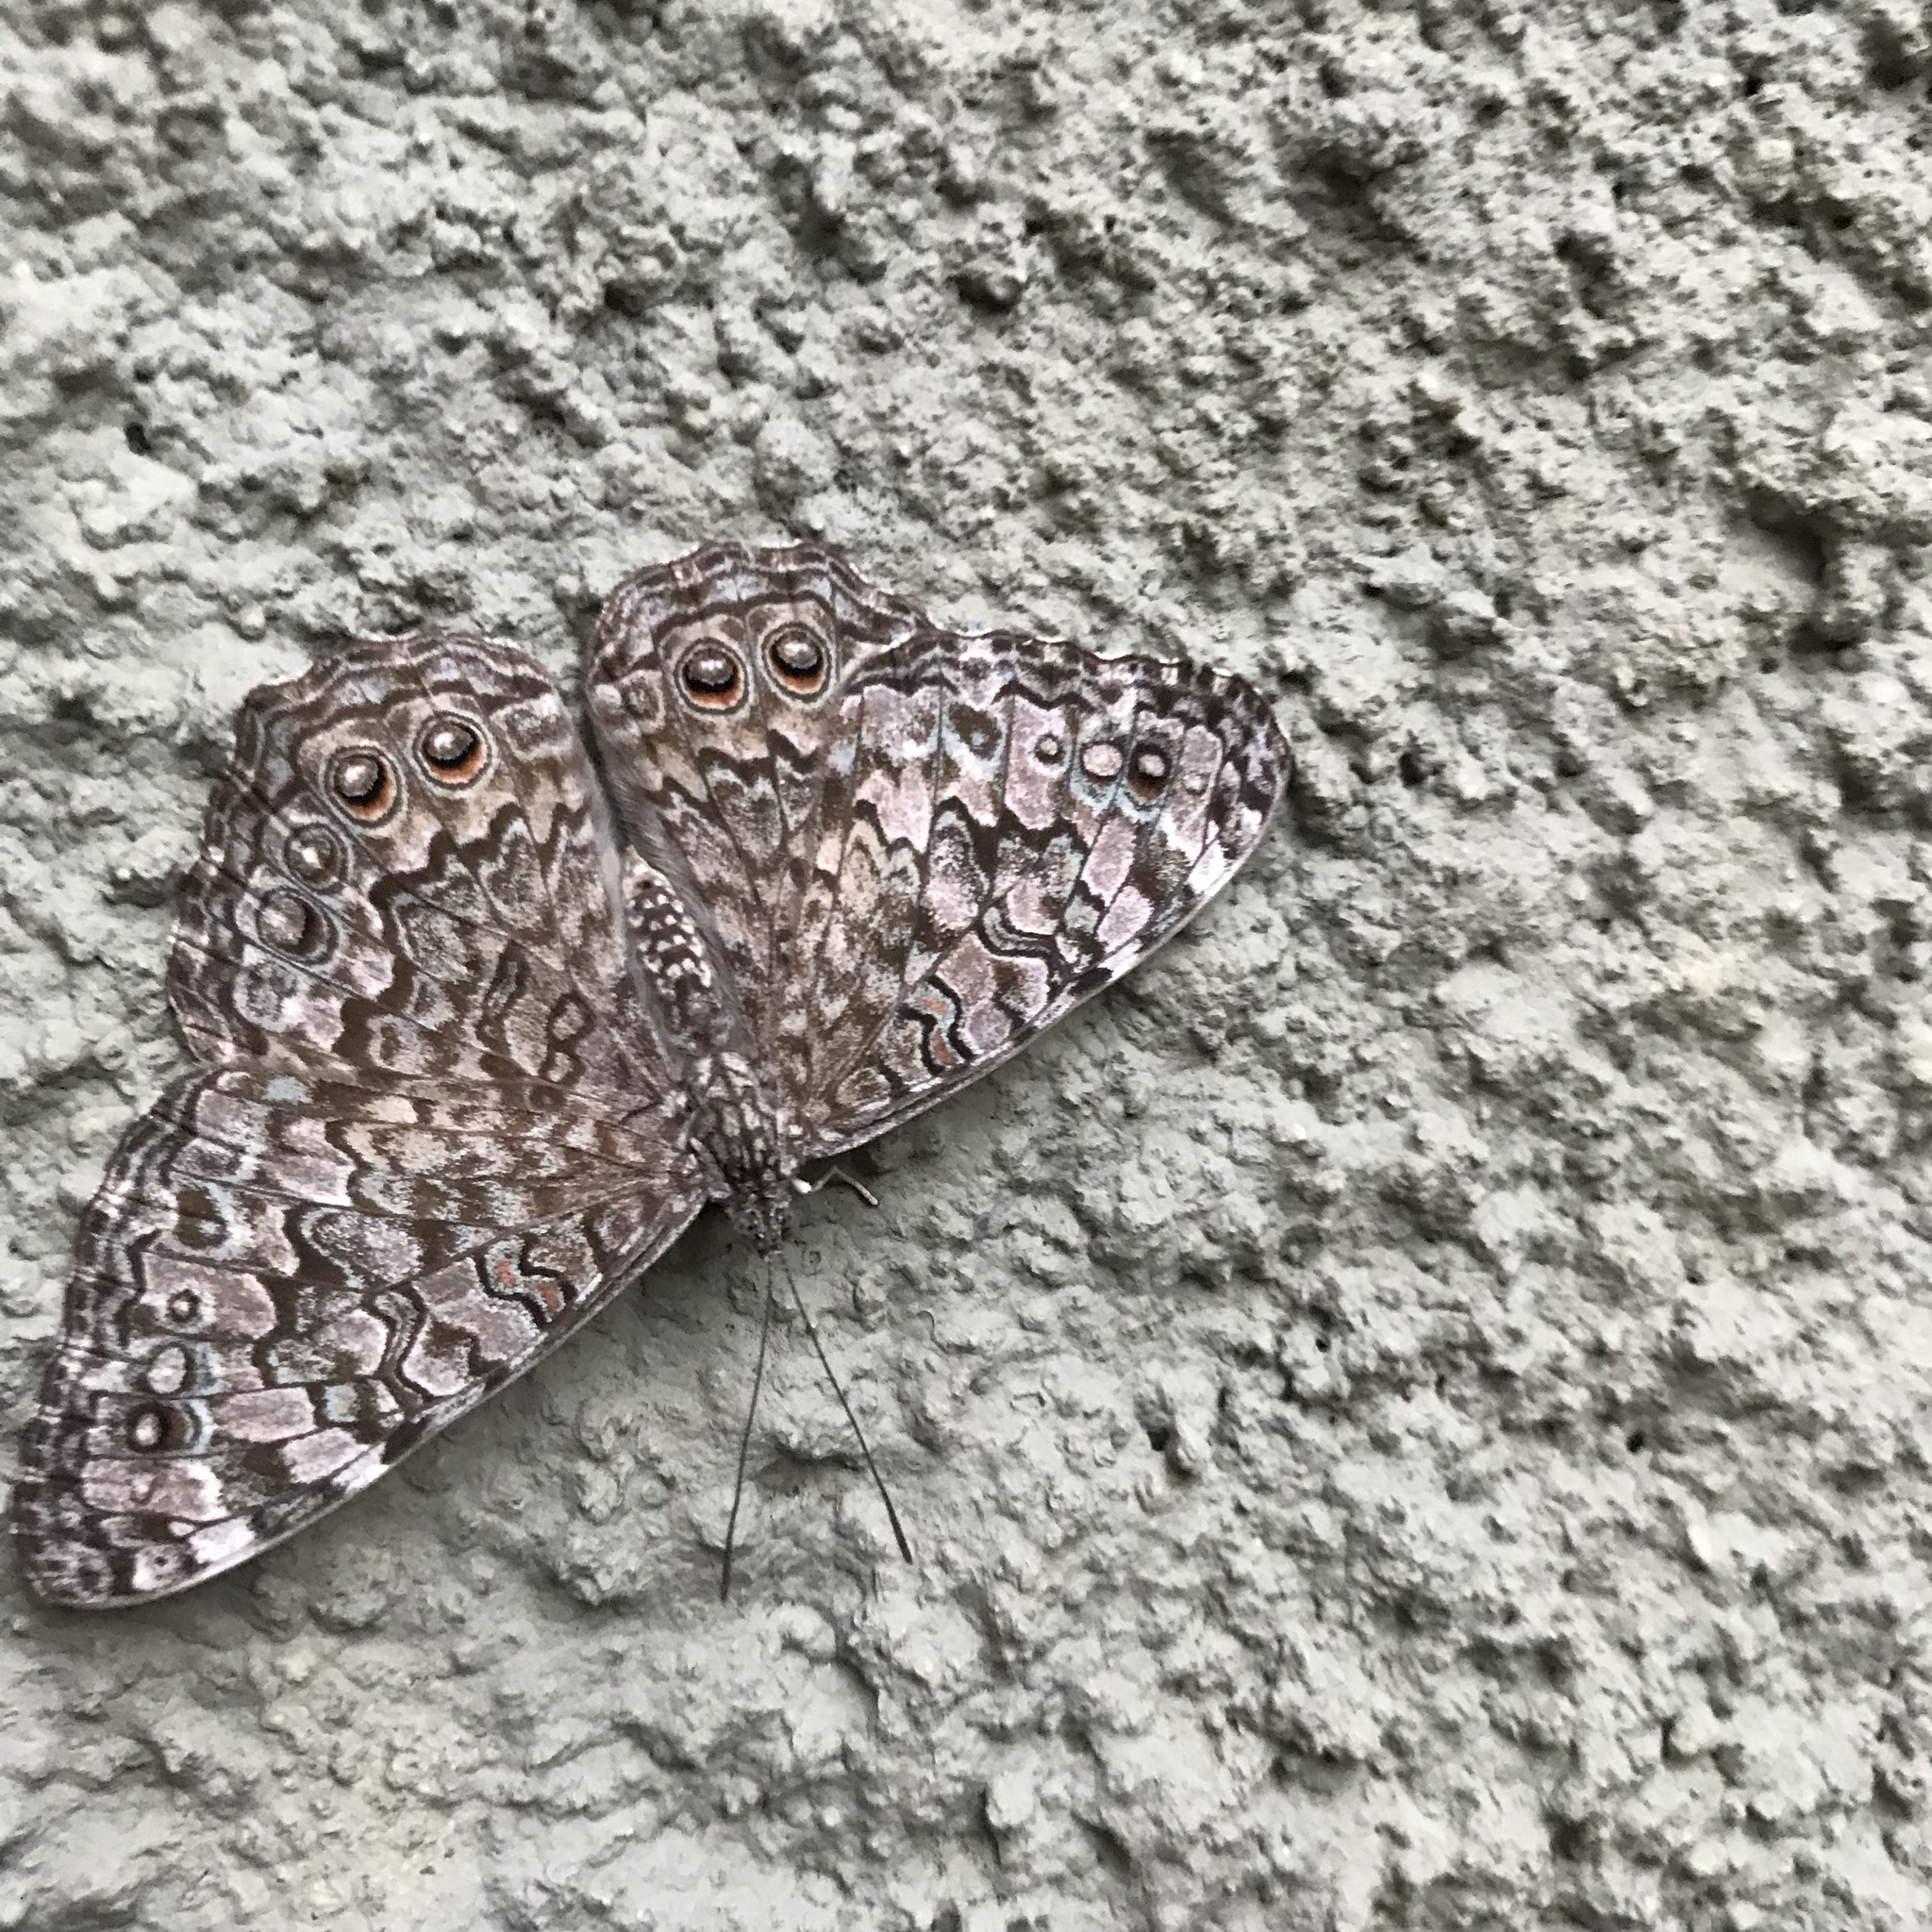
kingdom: Animalia
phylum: Arthropoda
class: Insecta
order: Lepidoptera
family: Nymphalidae
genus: Hamadryas
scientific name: Hamadryas februa
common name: Gray cracker
